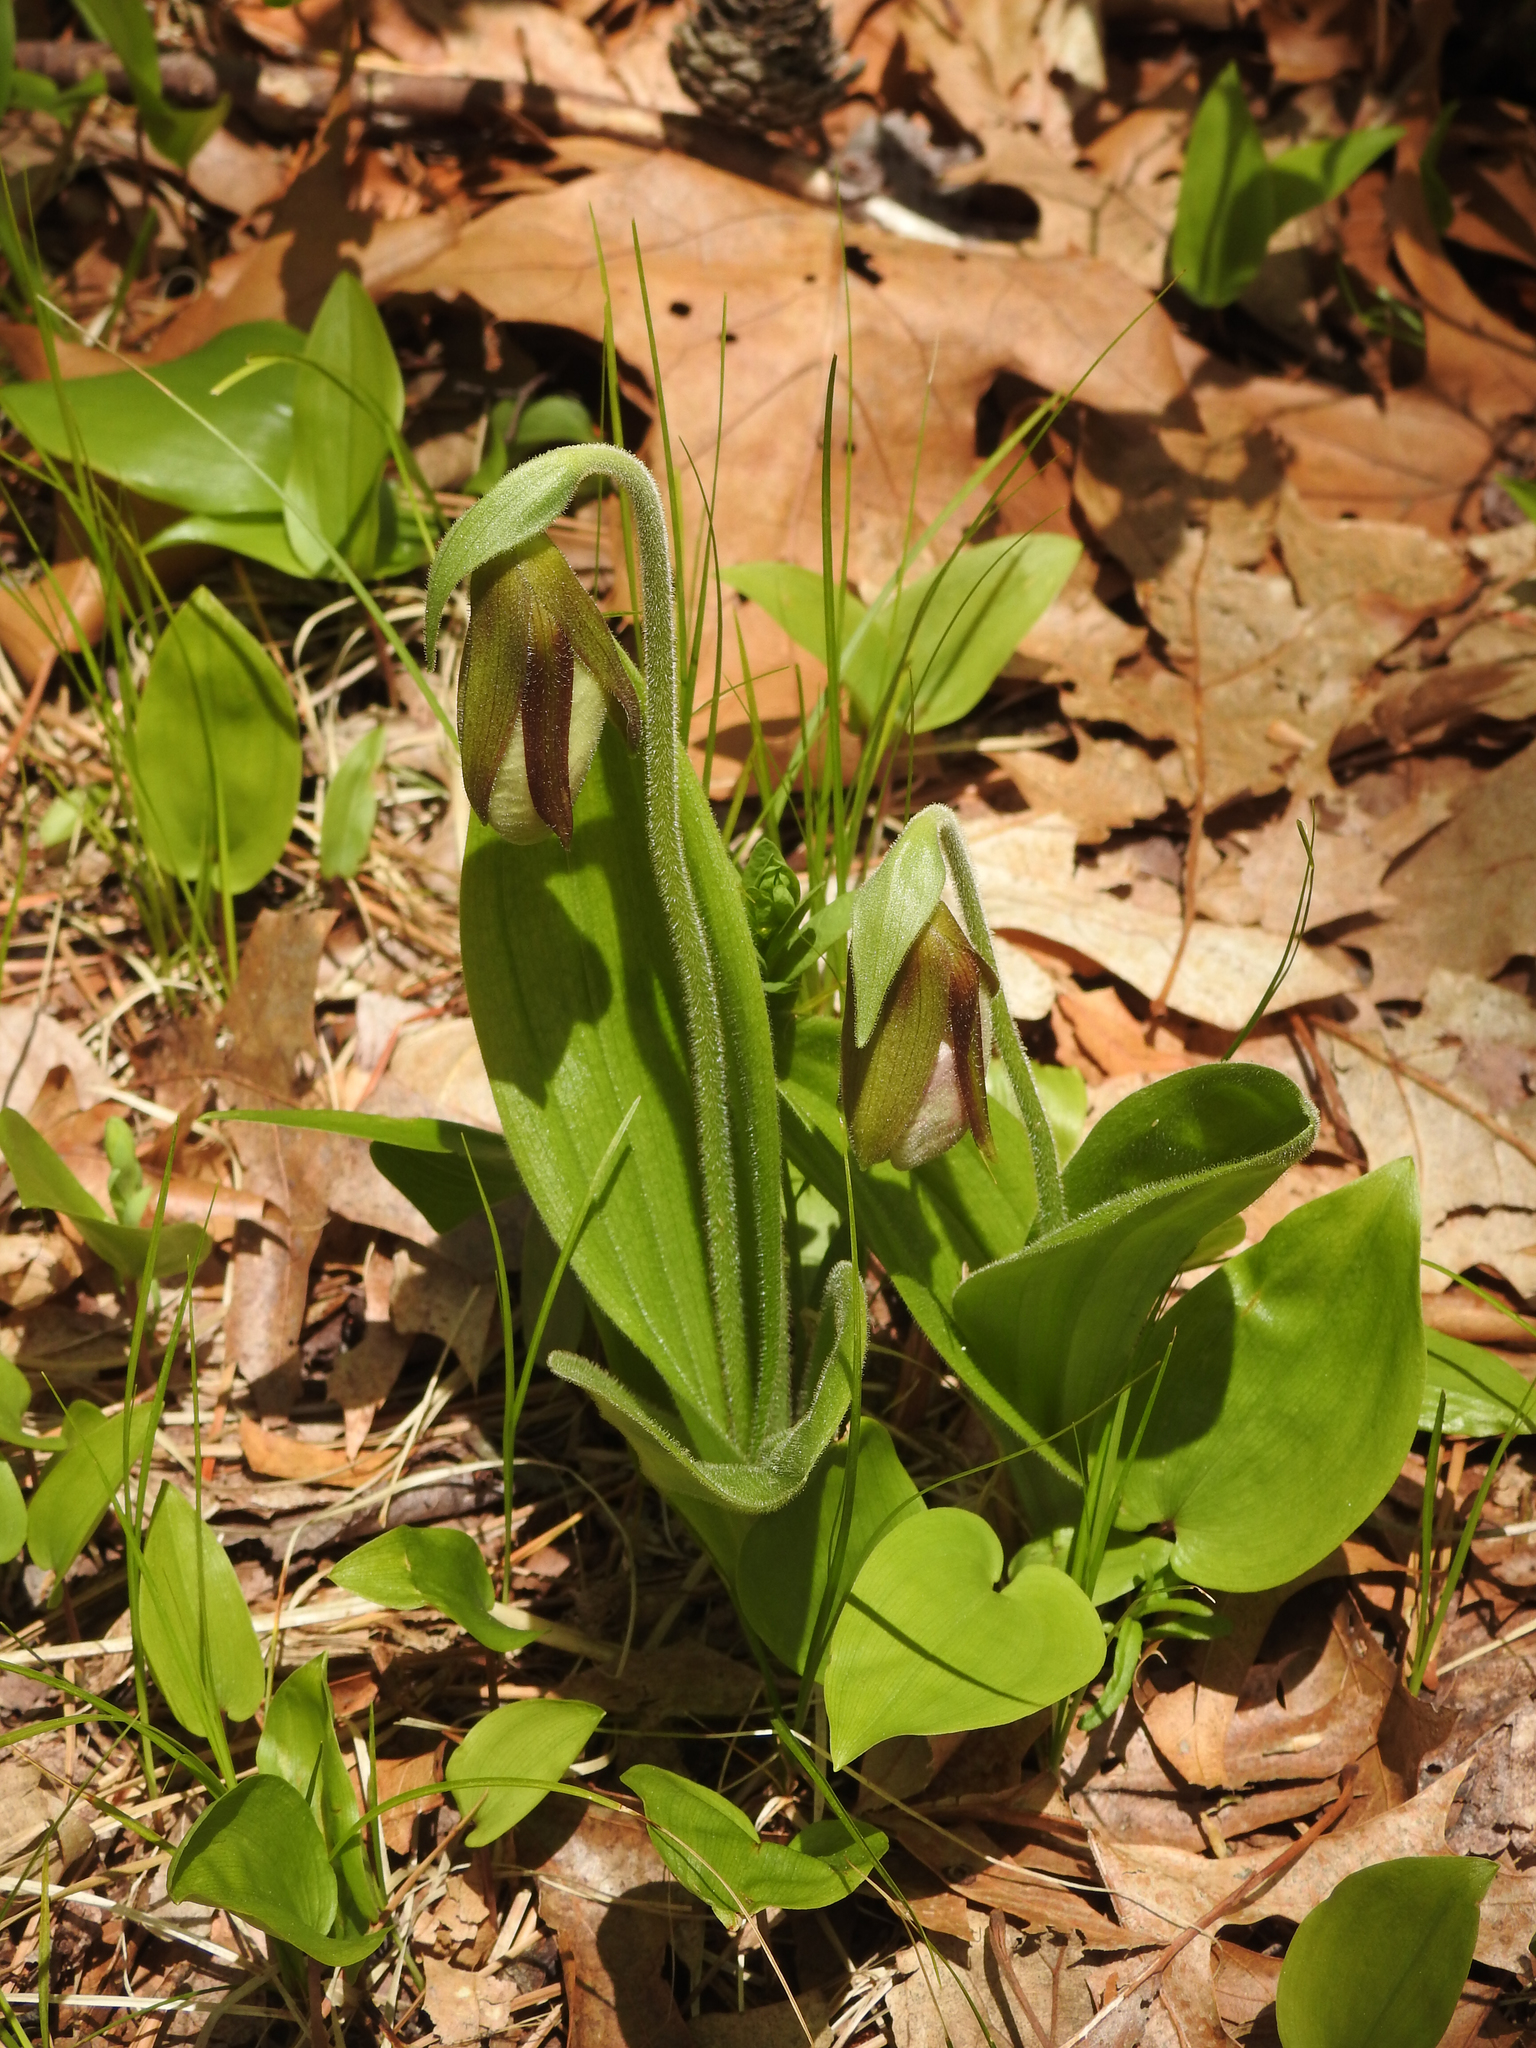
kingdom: Plantae
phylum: Tracheophyta
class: Liliopsida
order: Asparagales
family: Orchidaceae
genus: Cypripedium
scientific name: Cypripedium acaule
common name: Pink lady's-slipper
